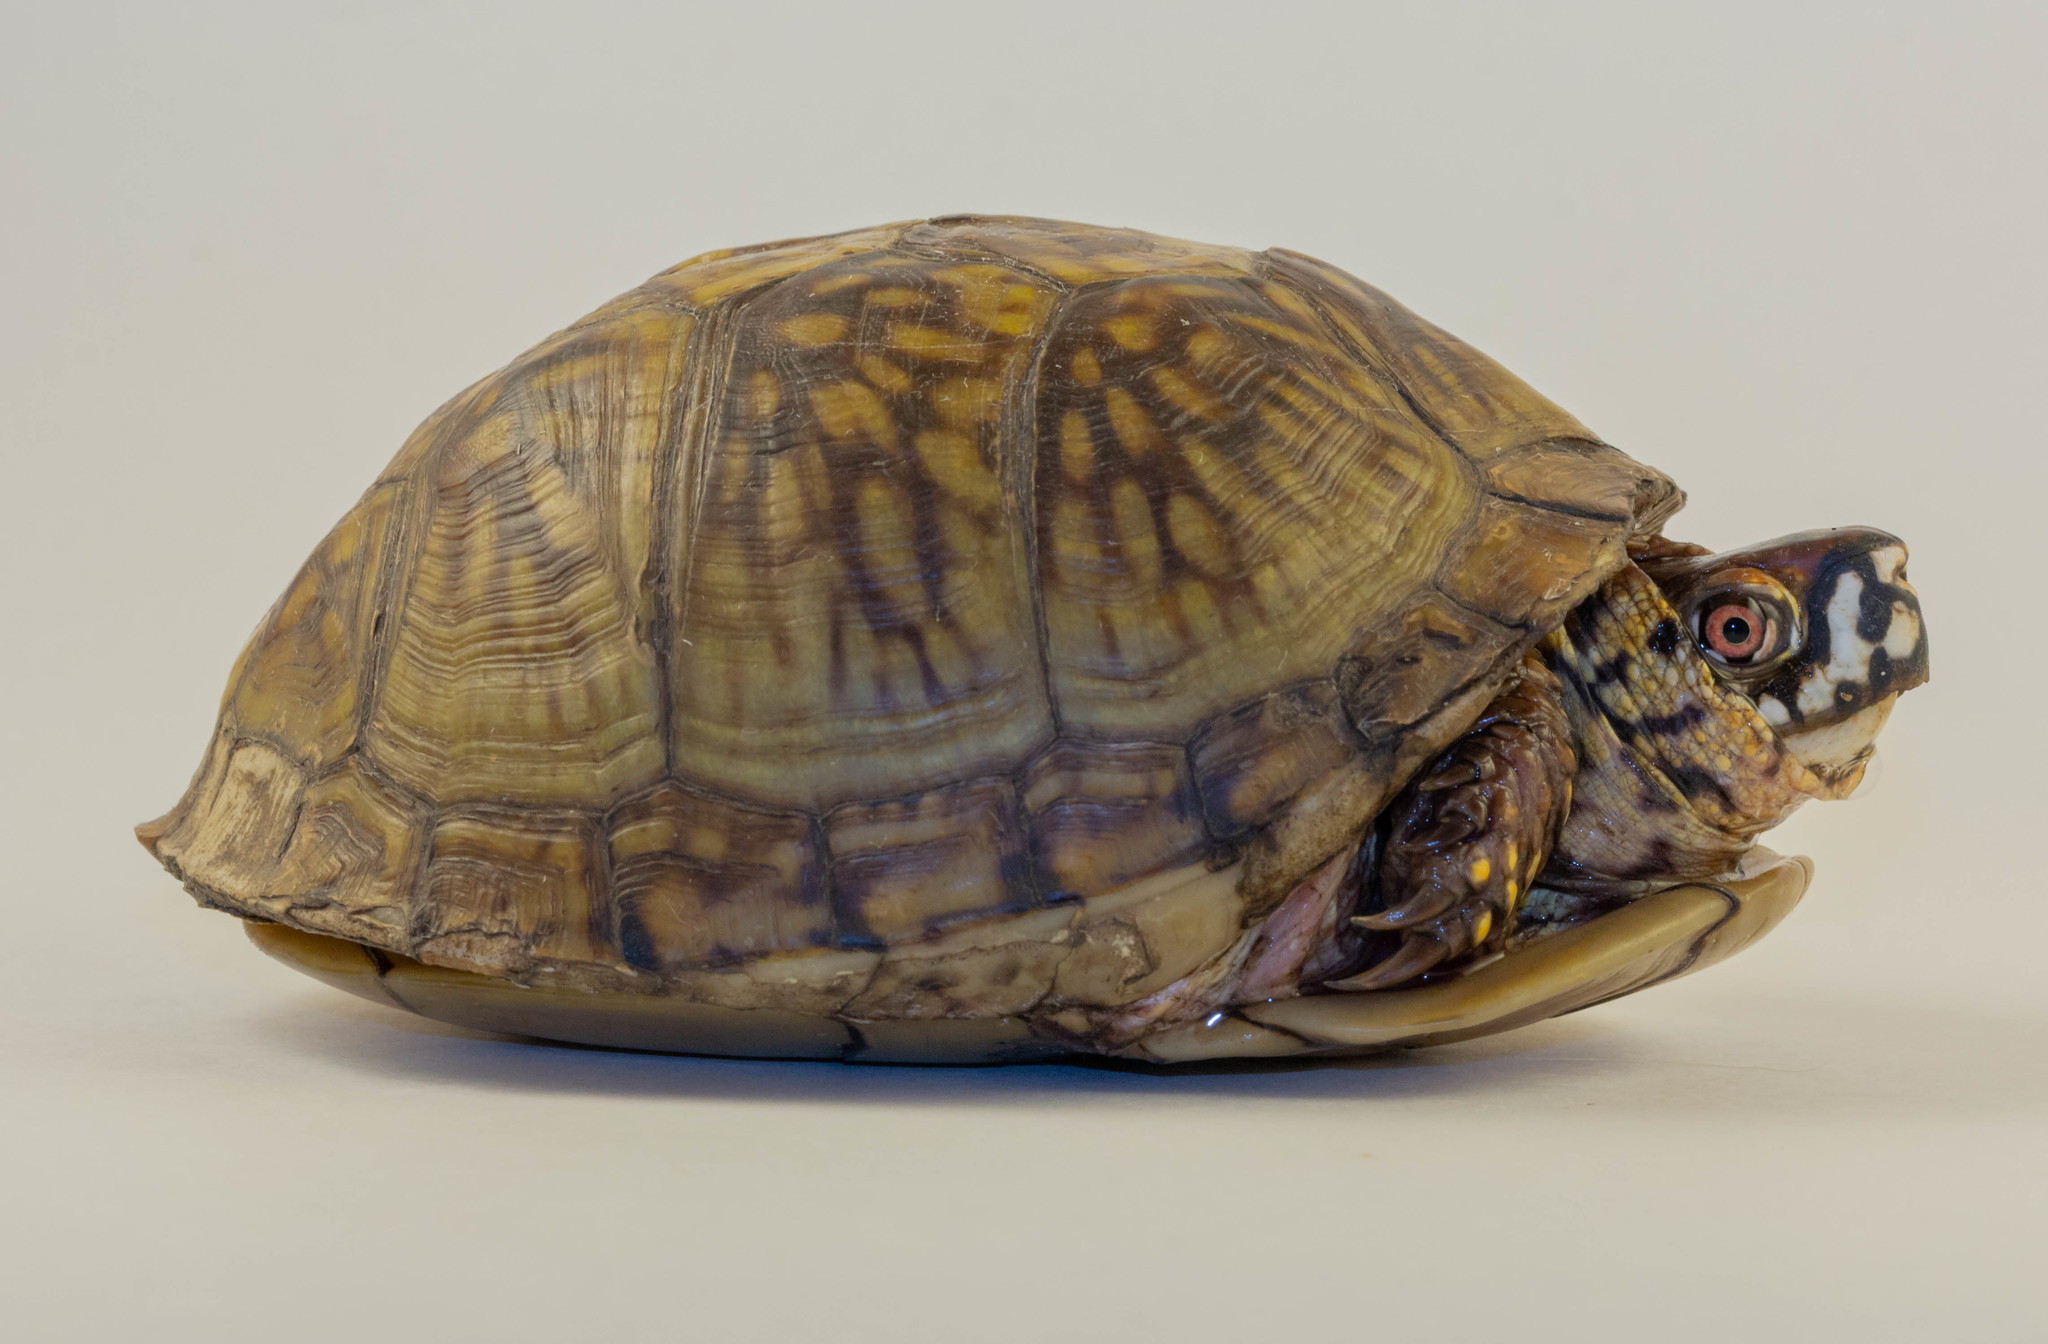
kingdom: Animalia
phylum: Chordata
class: Testudines
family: Emydidae
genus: Terrapene
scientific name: Terrapene carolina
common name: Common box turtle
